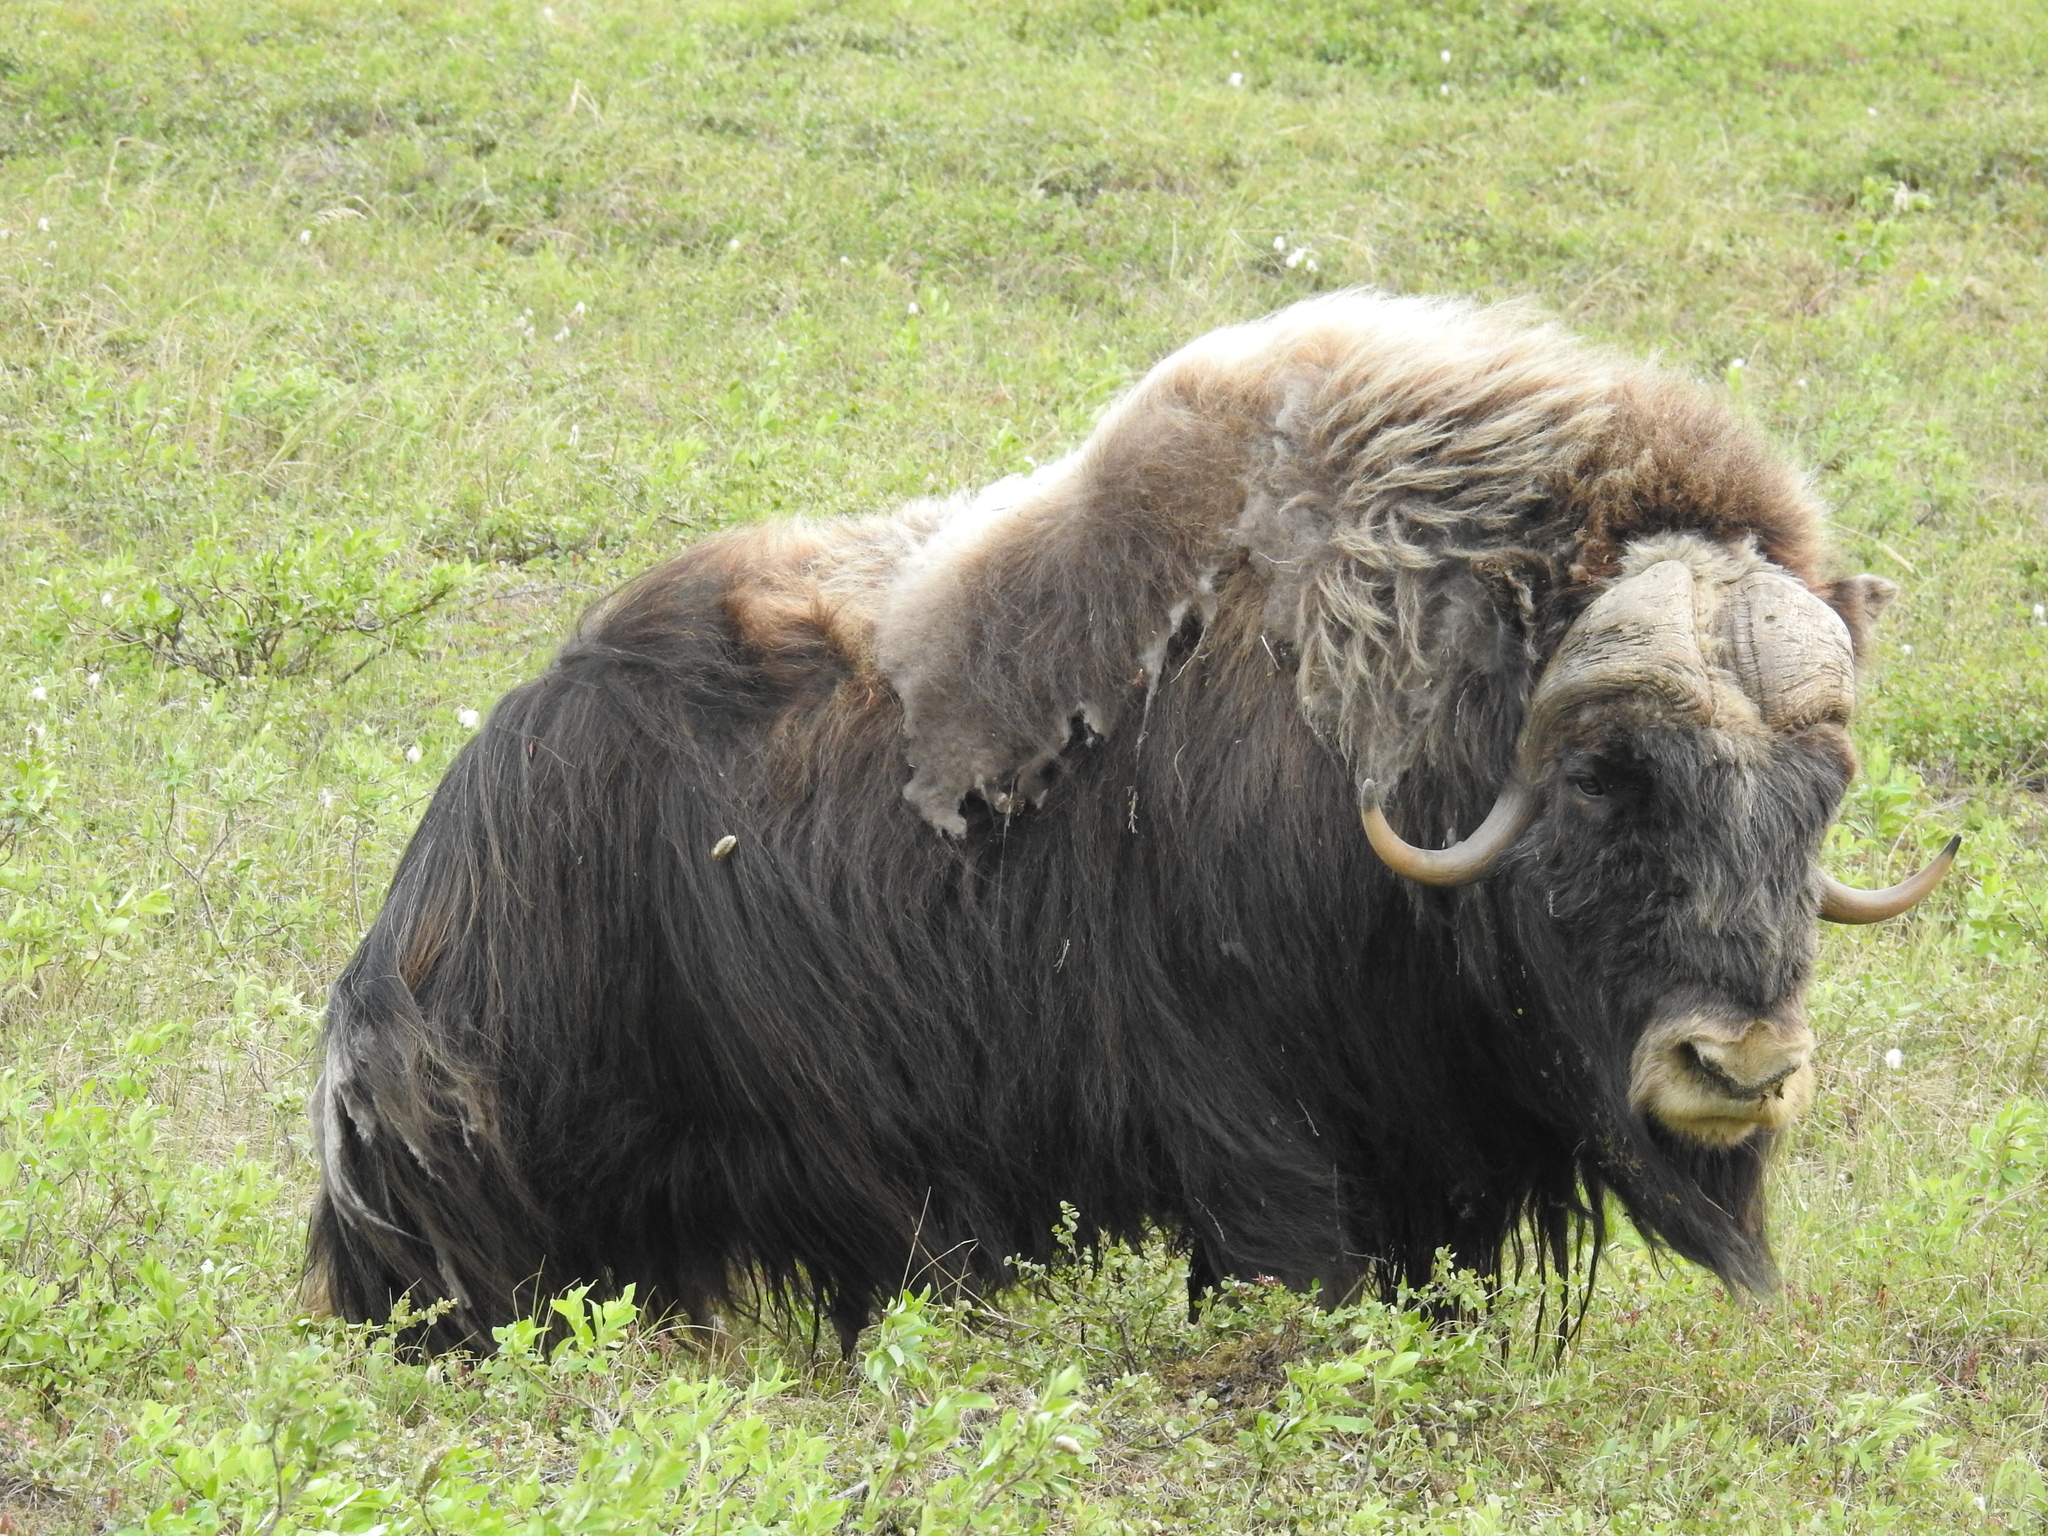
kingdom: Animalia
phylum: Chordata
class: Mammalia
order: Artiodactyla
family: Bovidae
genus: Ovibos
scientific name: Ovibos moschatus
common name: Muskox
